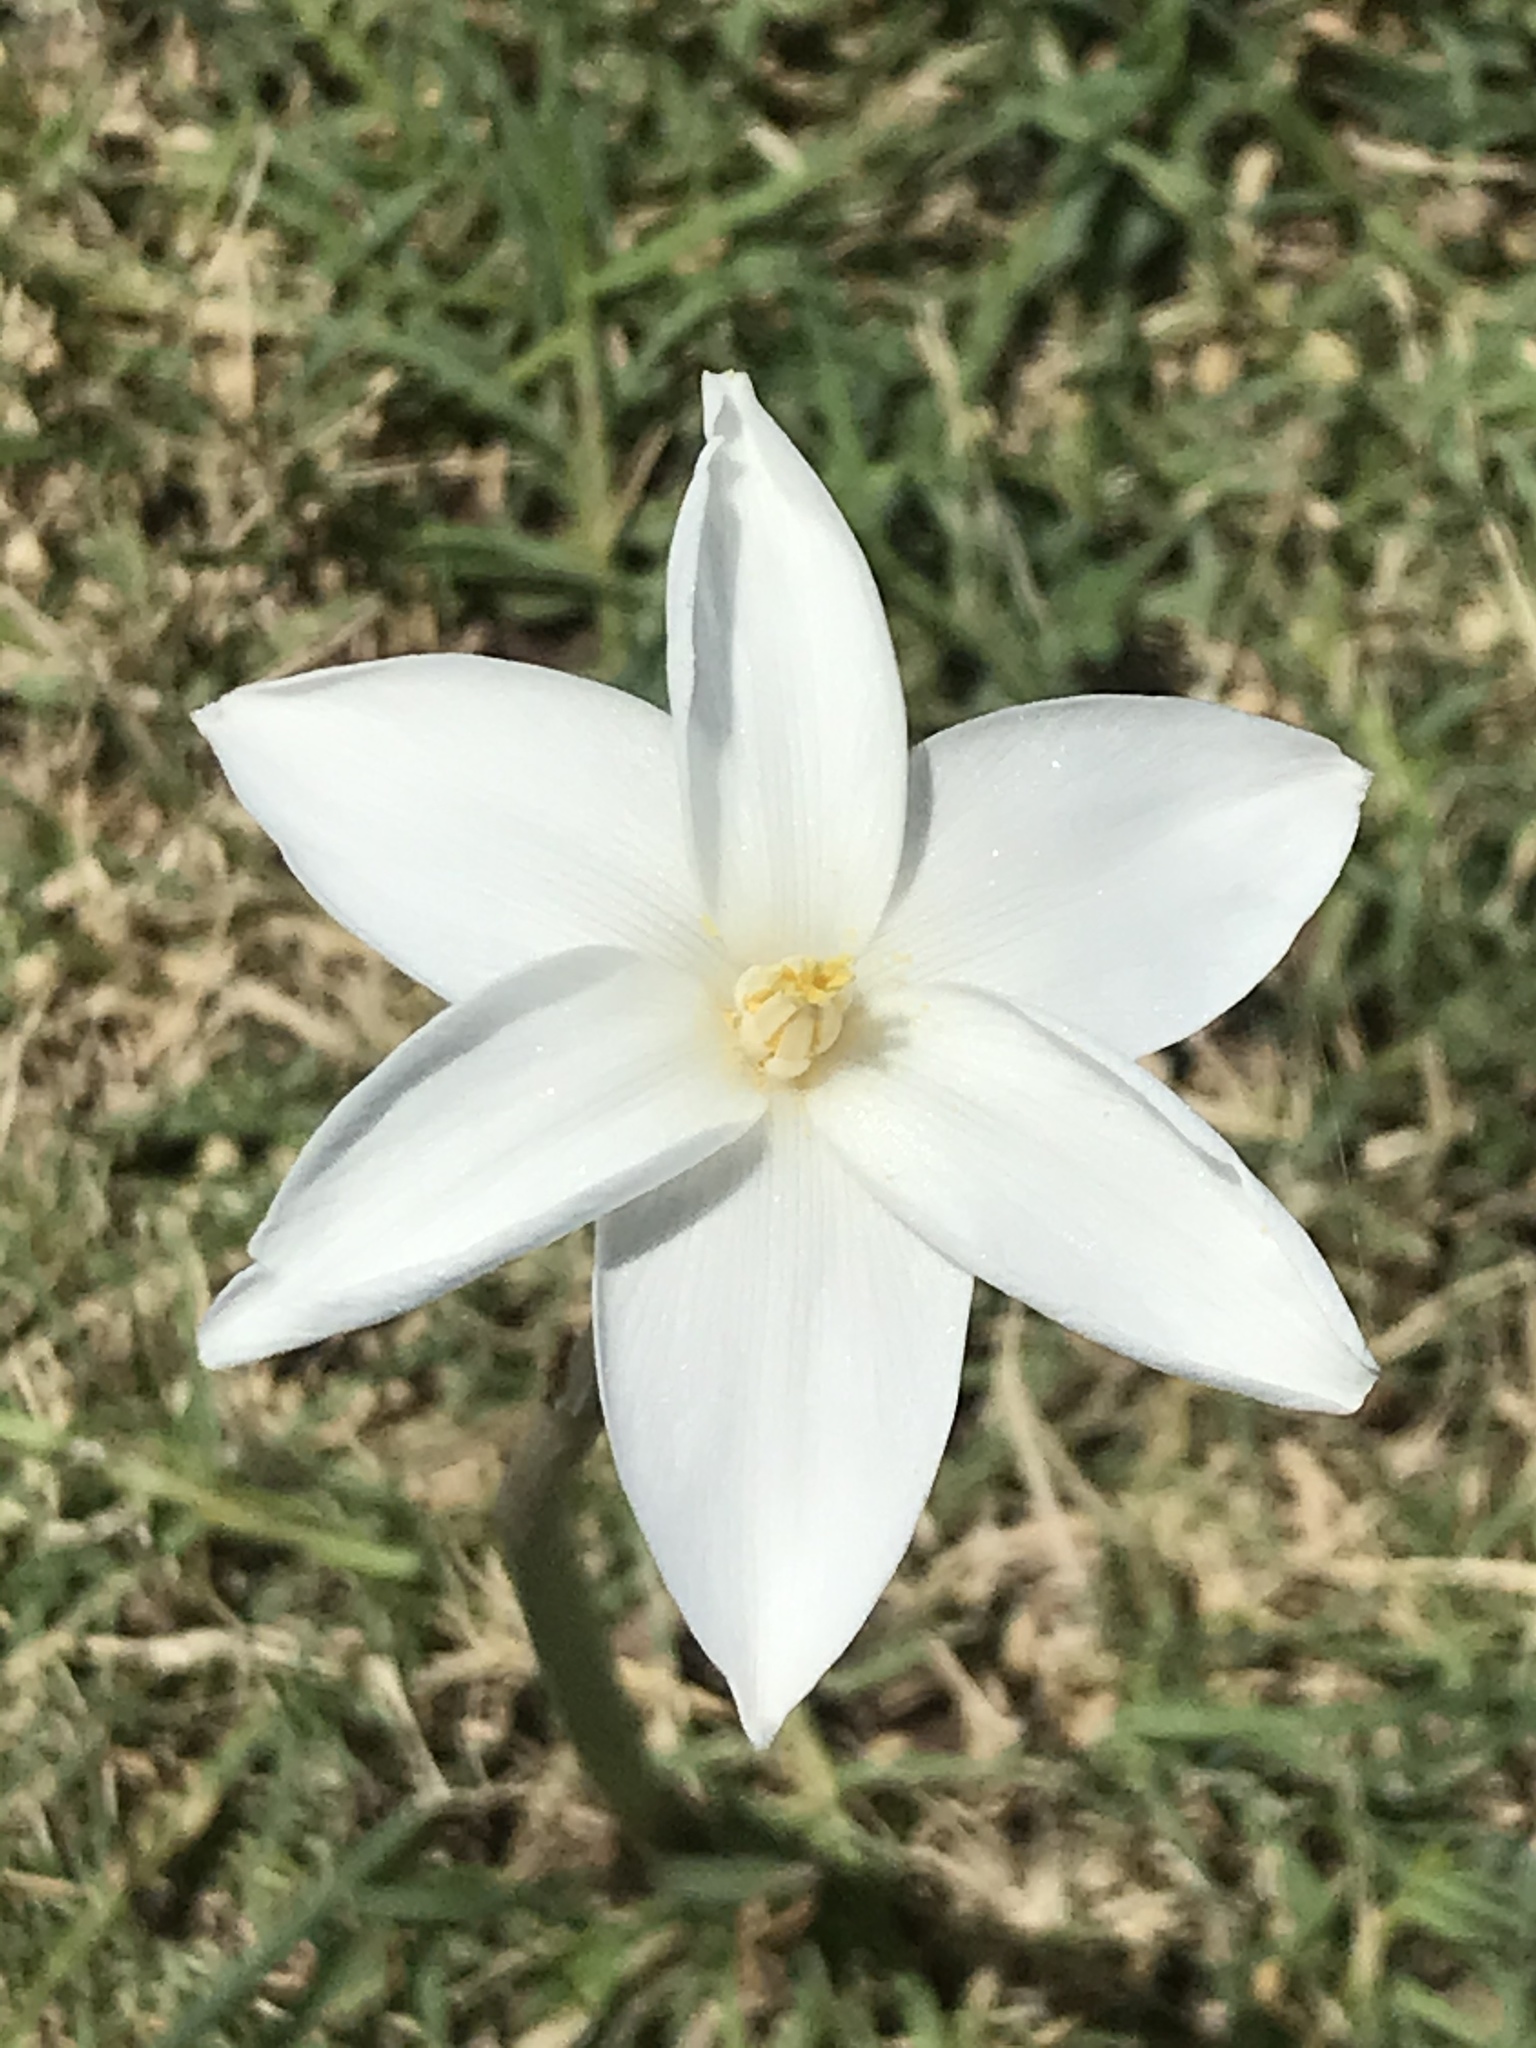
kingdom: Plantae
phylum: Tracheophyta
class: Liliopsida
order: Asparagales
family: Amaryllidaceae
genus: Zephyranthes
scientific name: Zephyranthes chlorosolen
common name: Evening rain-lily
